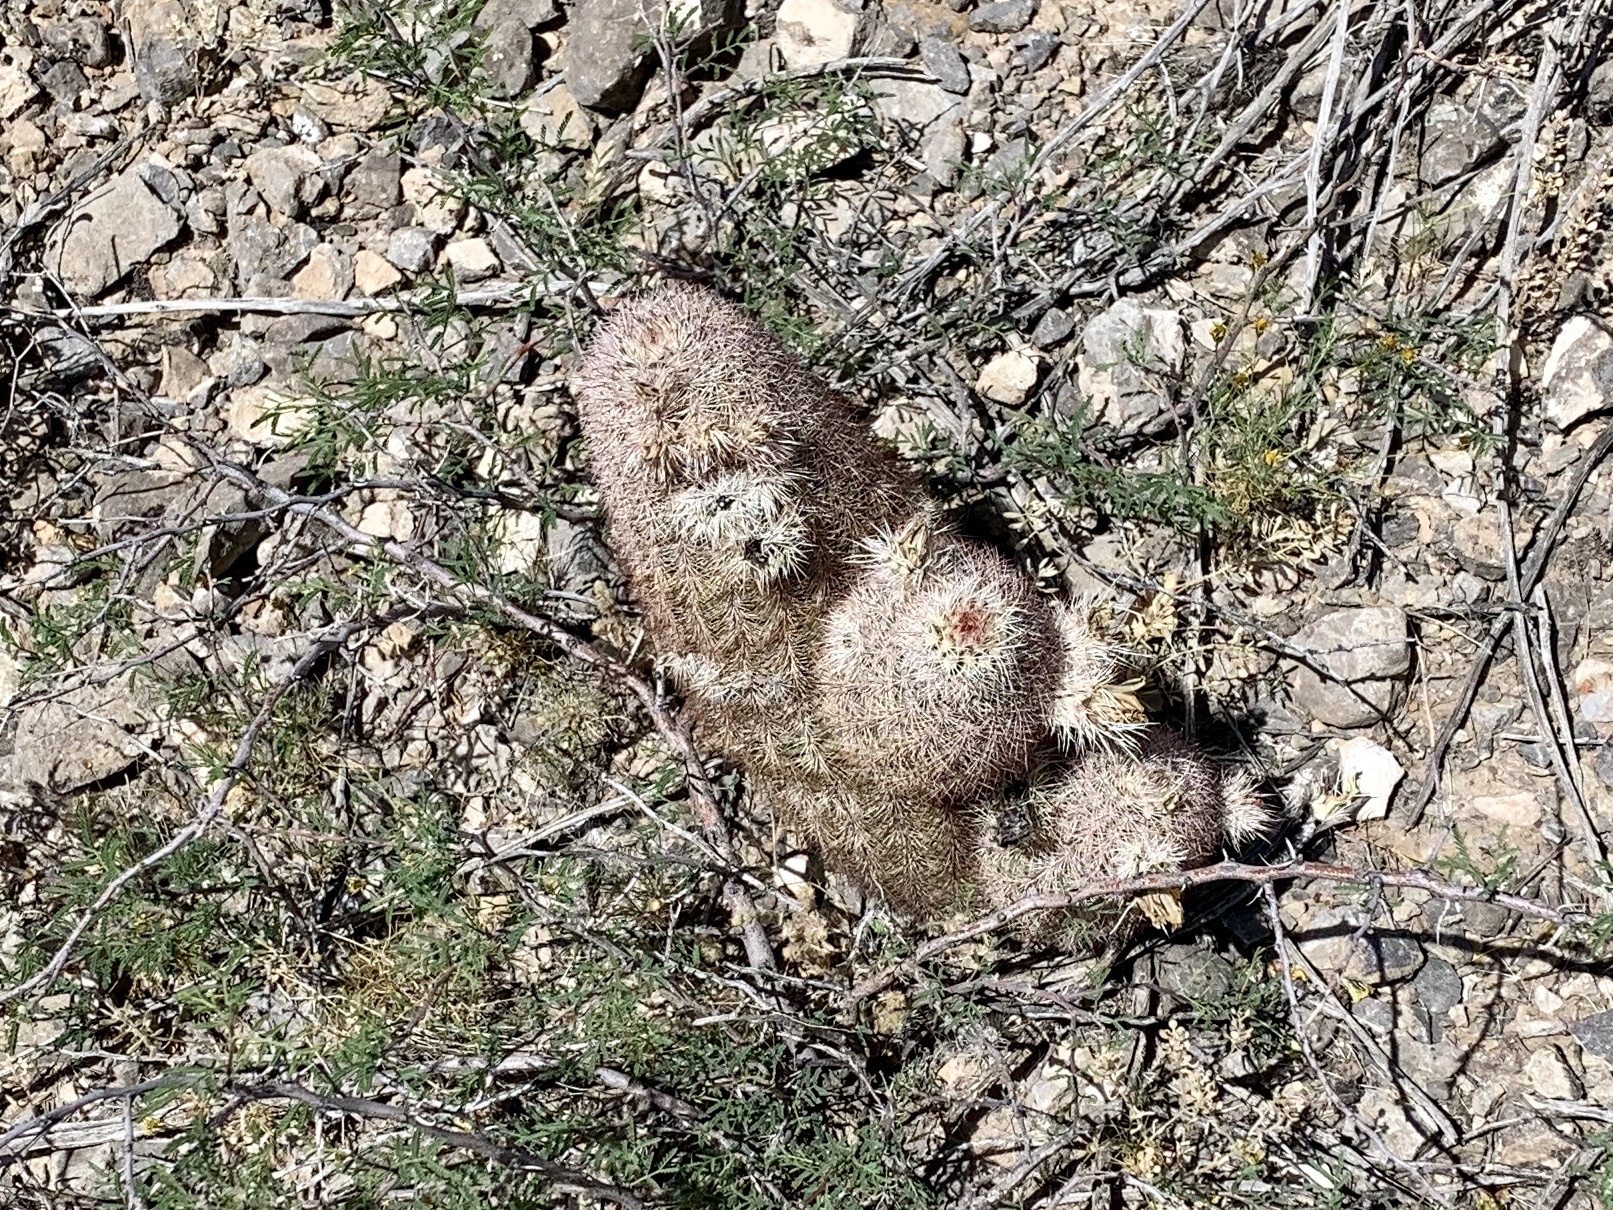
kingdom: Plantae
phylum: Tracheophyta
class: Magnoliopsida
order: Caryophyllales
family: Cactaceae
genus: Echinocereus
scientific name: Echinocereus dasyacanthus
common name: Spiny hedgehog cactus
